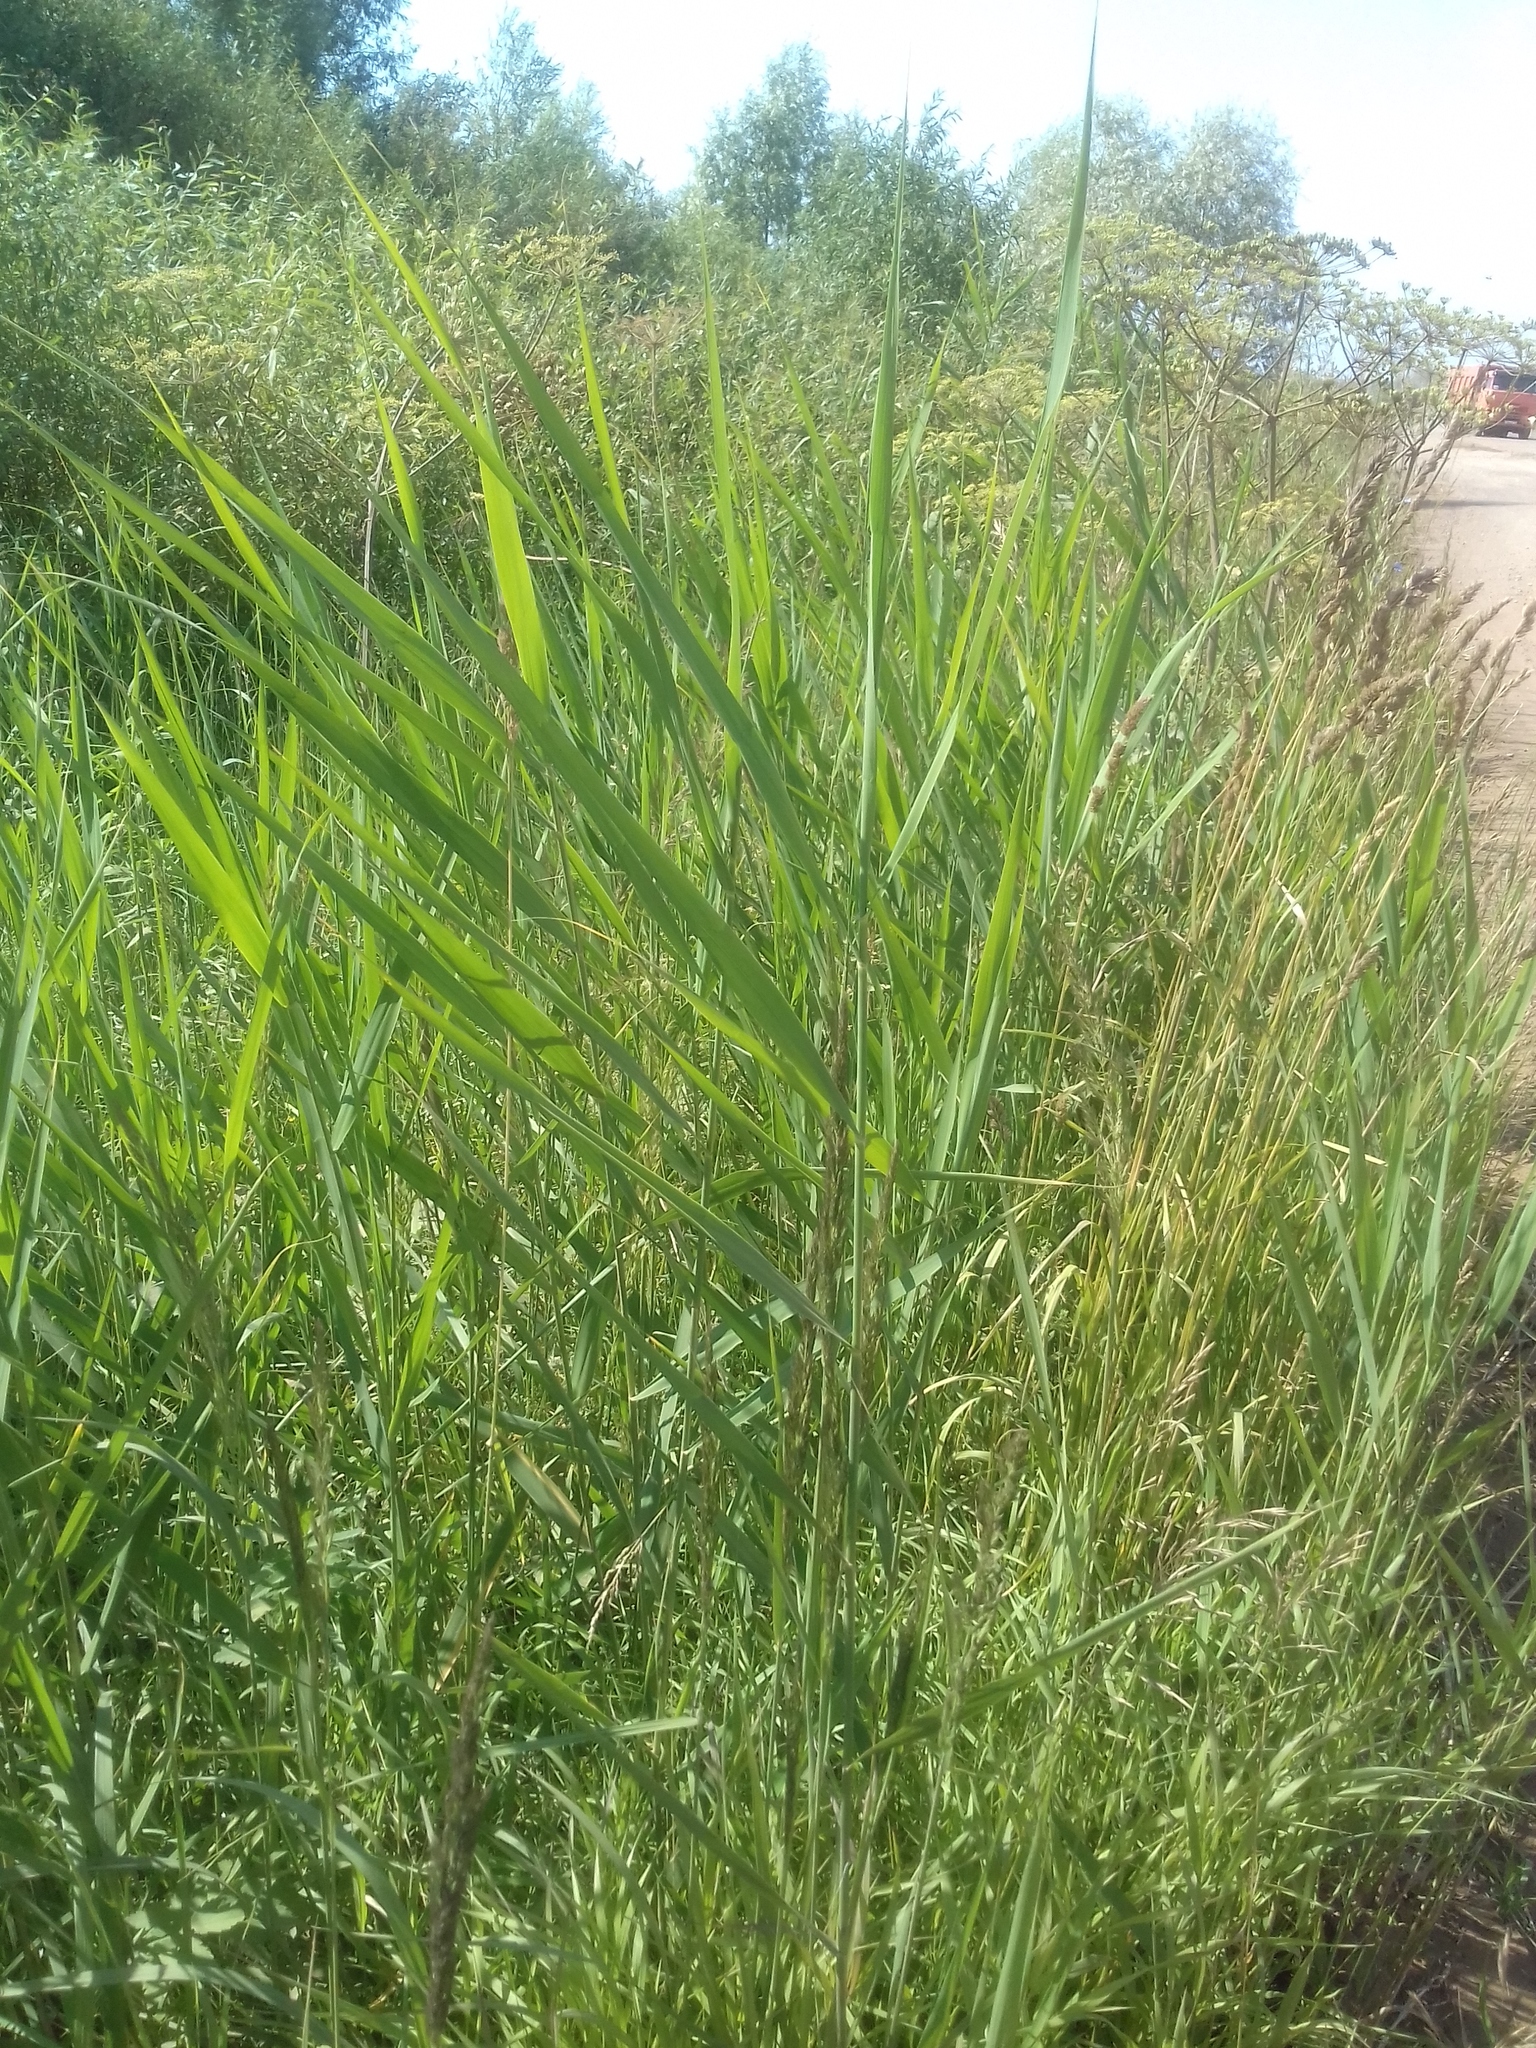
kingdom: Plantae
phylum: Tracheophyta
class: Liliopsida
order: Poales
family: Poaceae
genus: Phragmites
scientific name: Phragmites australis
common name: Common reed
